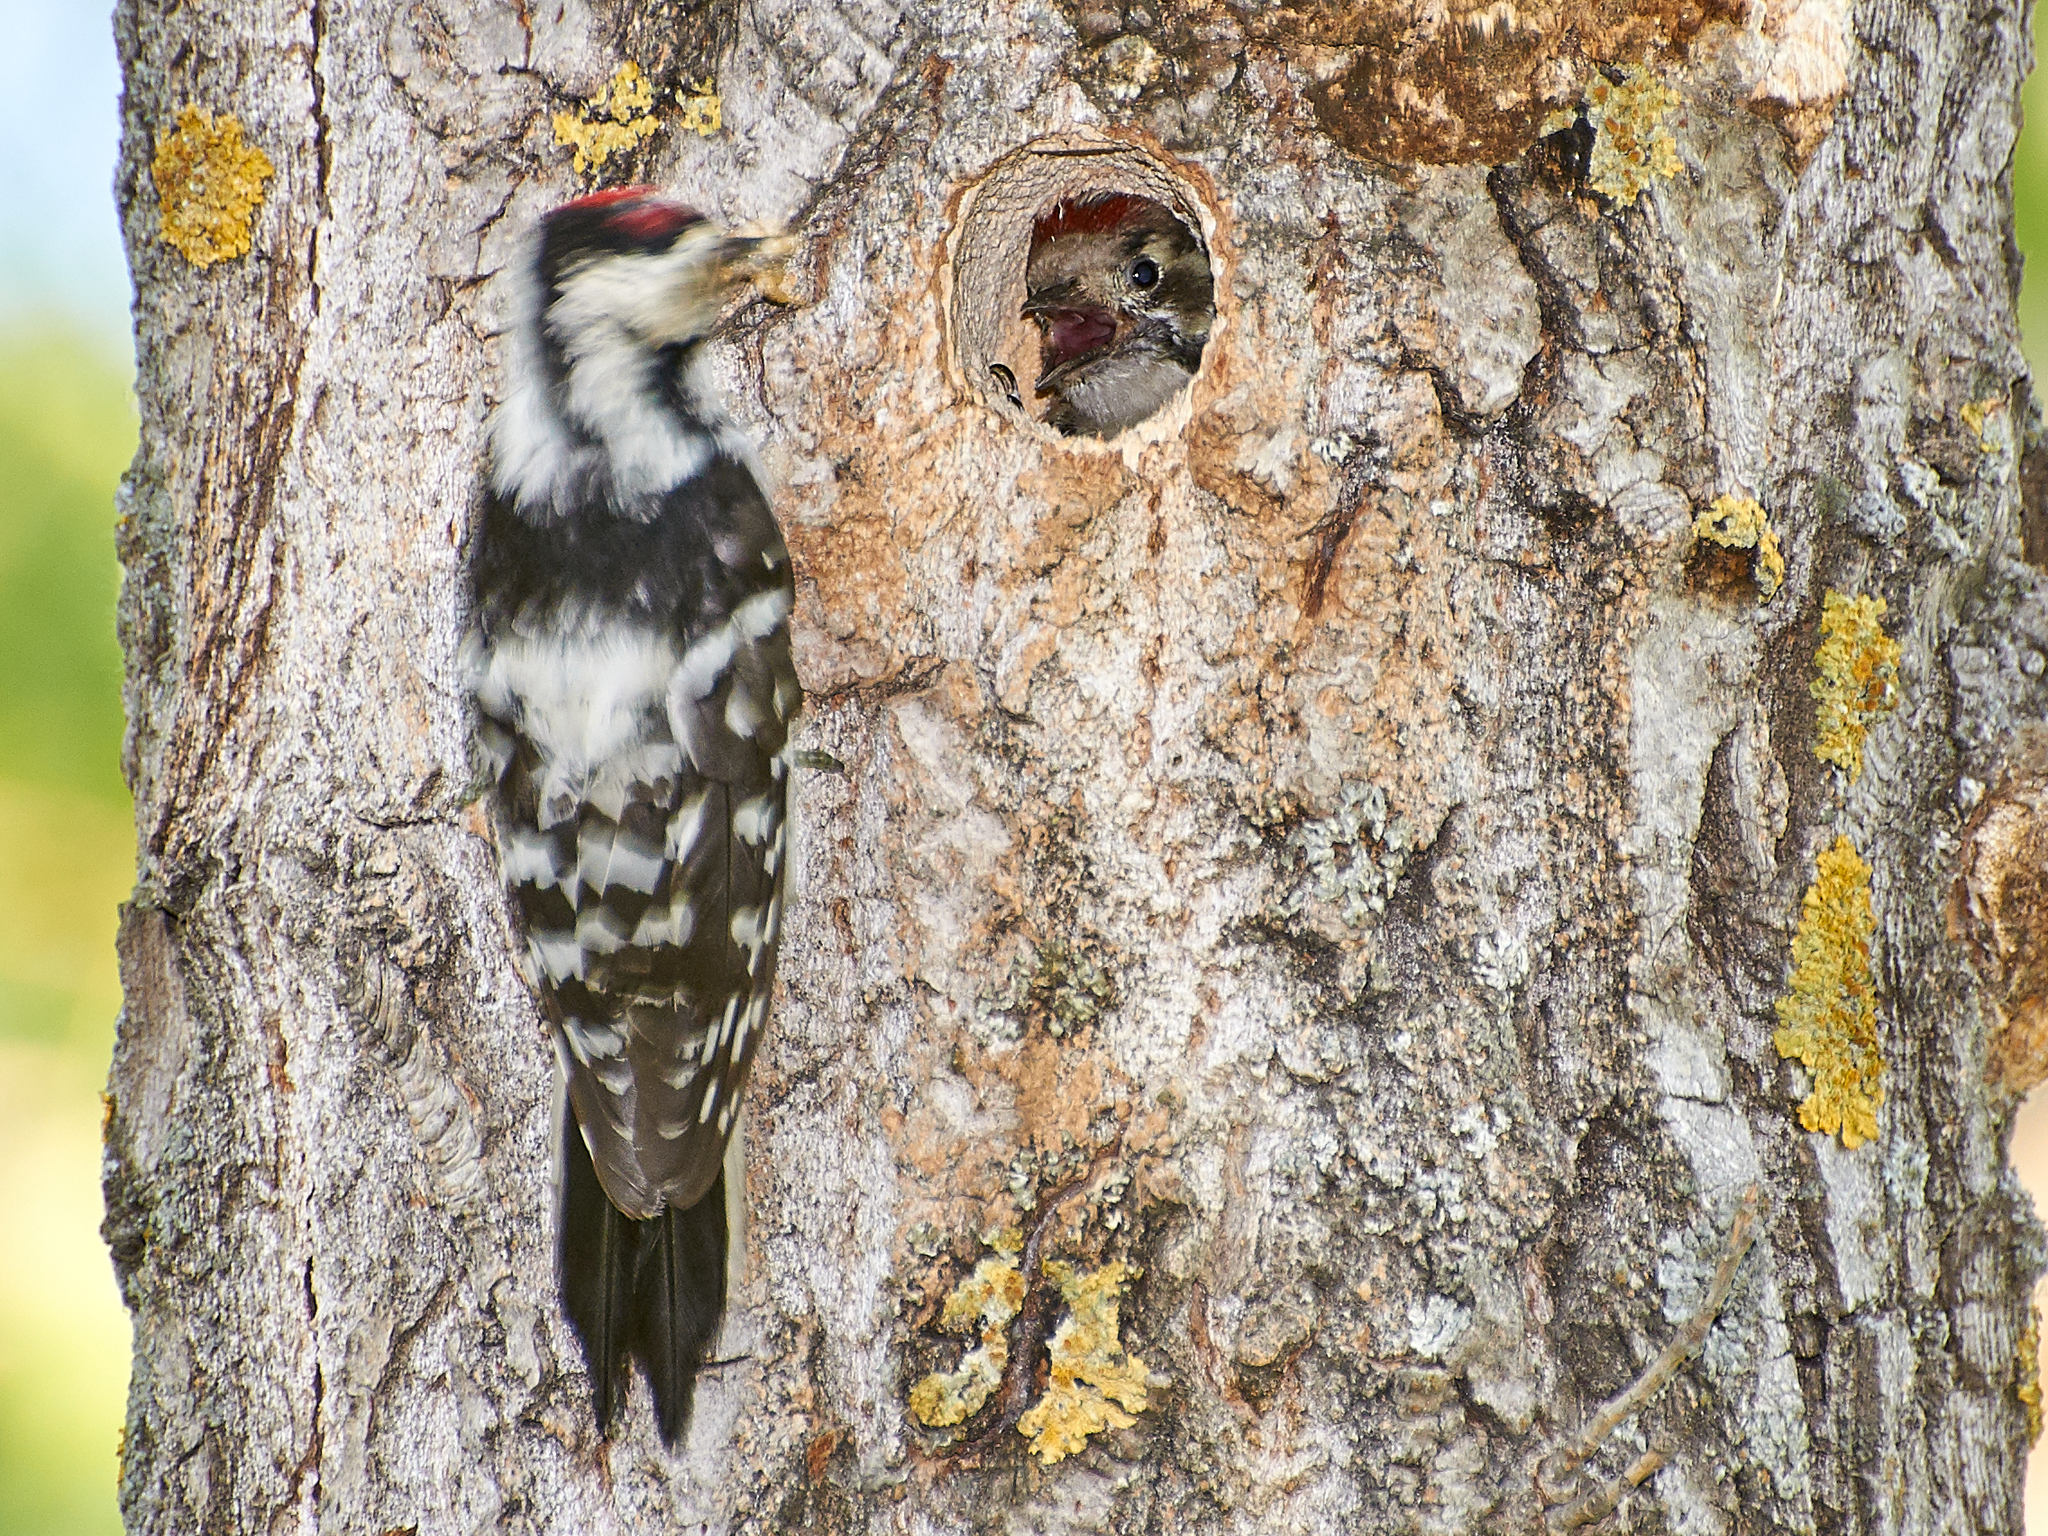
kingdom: Animalia
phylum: Chordata
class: Aves
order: Piciformes
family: Picidae
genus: Dryobates
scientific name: Dryobates minor
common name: Lesser spotted woodpecker
